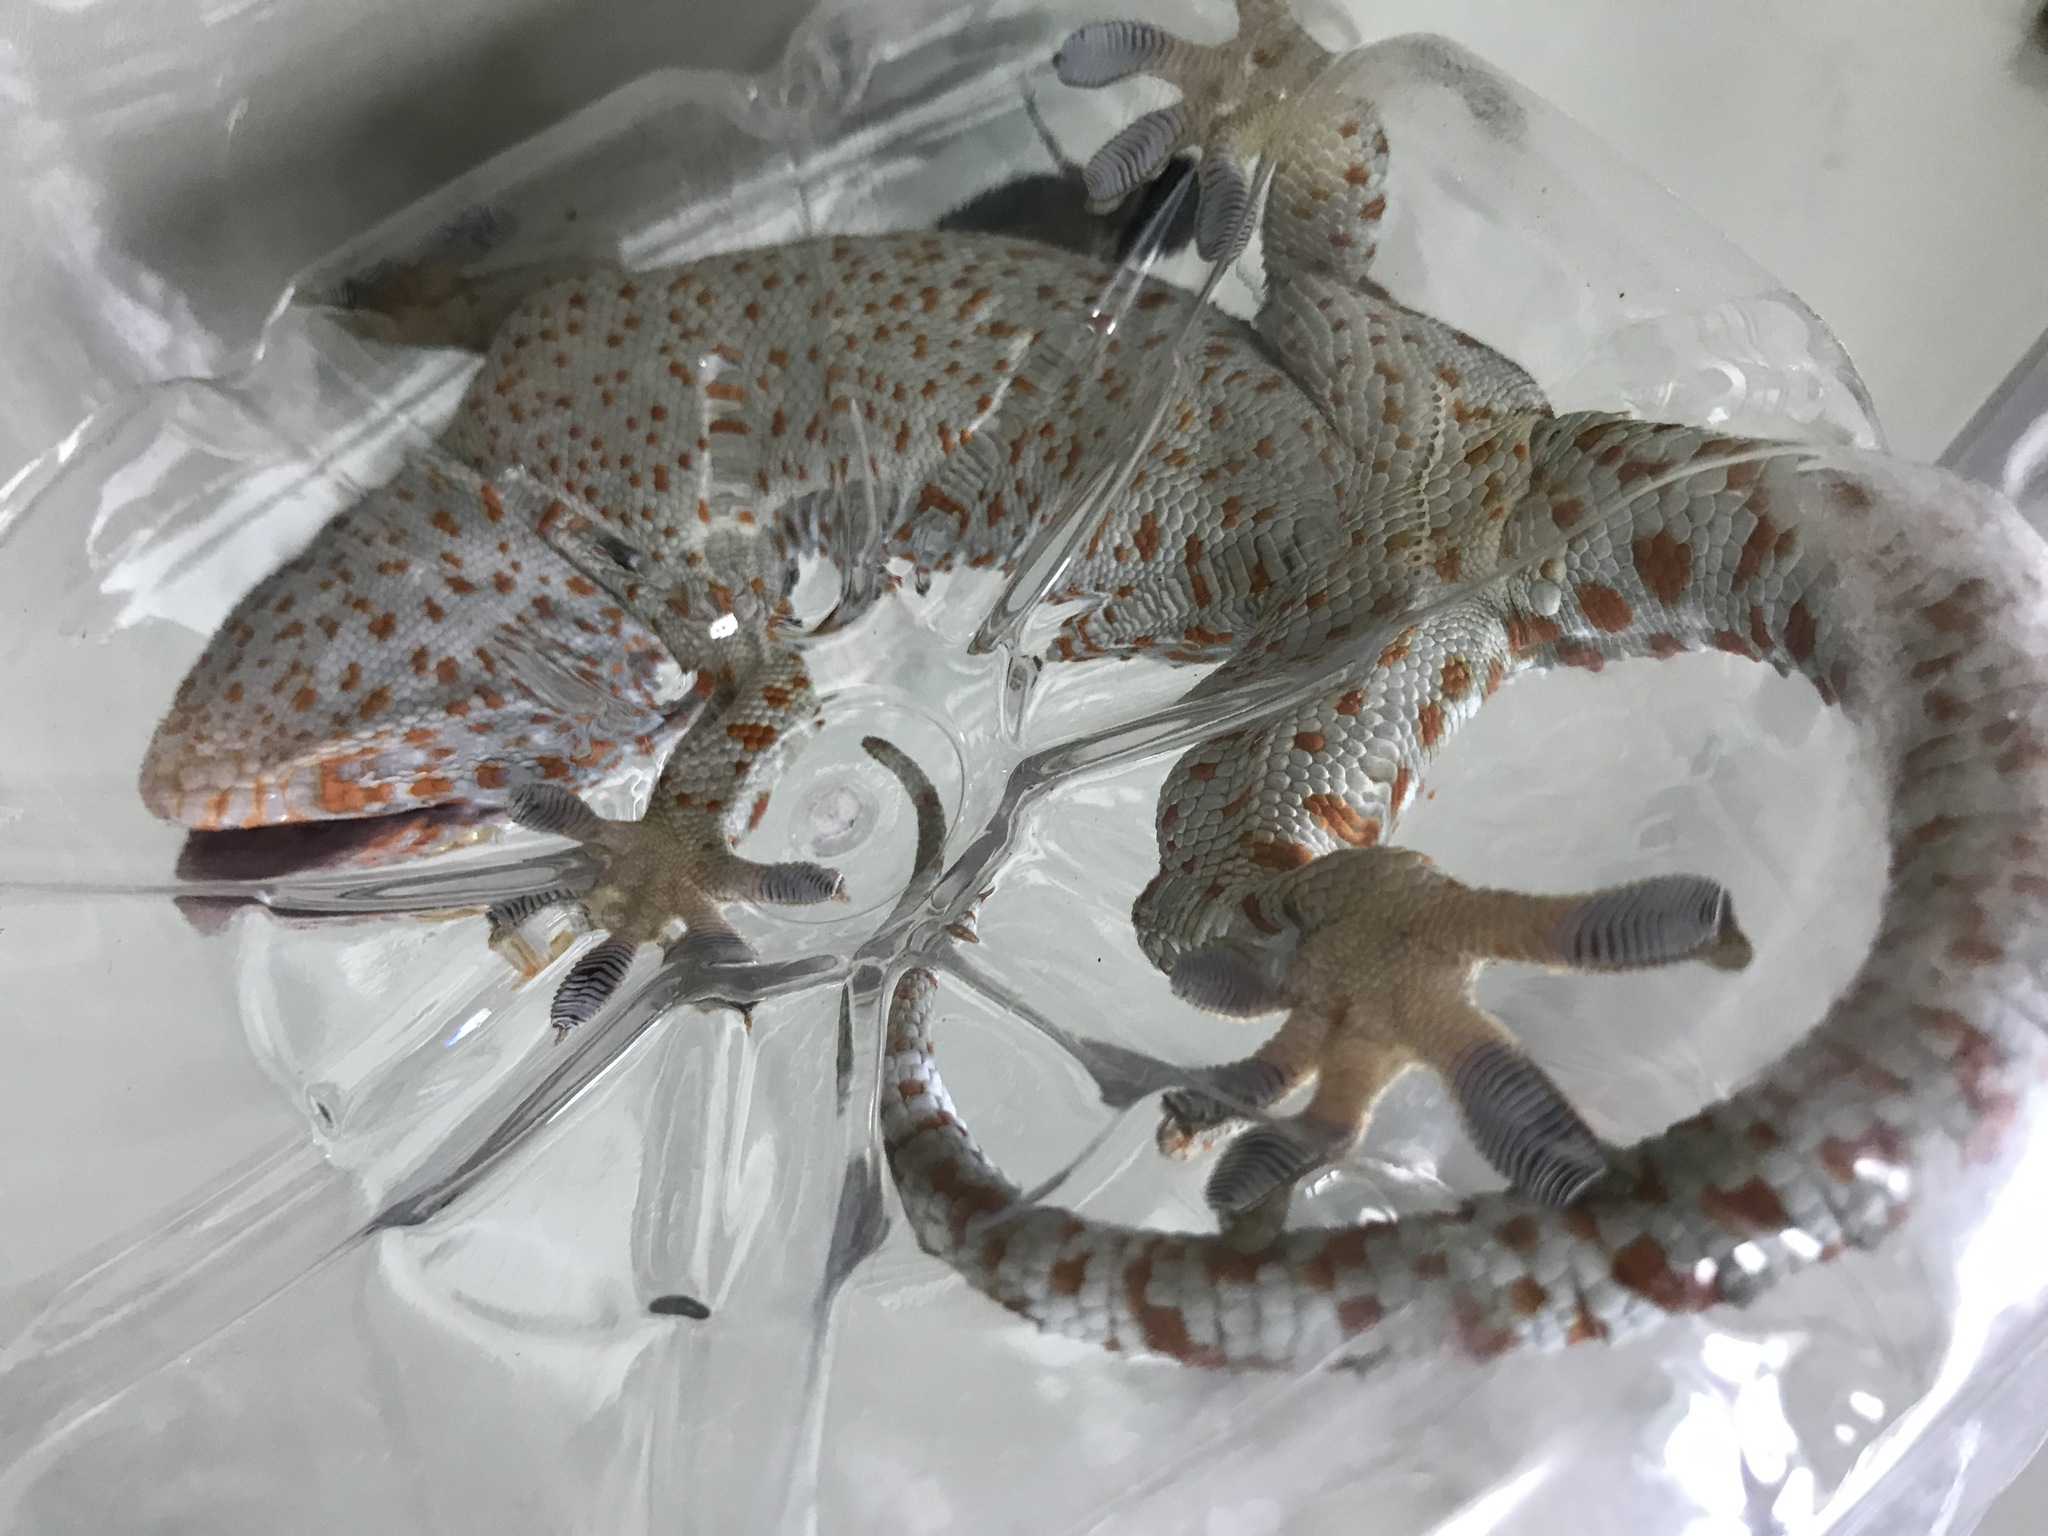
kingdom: Animalia
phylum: Chordata
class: Squamata
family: Gekkonidae
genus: Gekko
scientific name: Gekko gecko
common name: Tokay gecko
